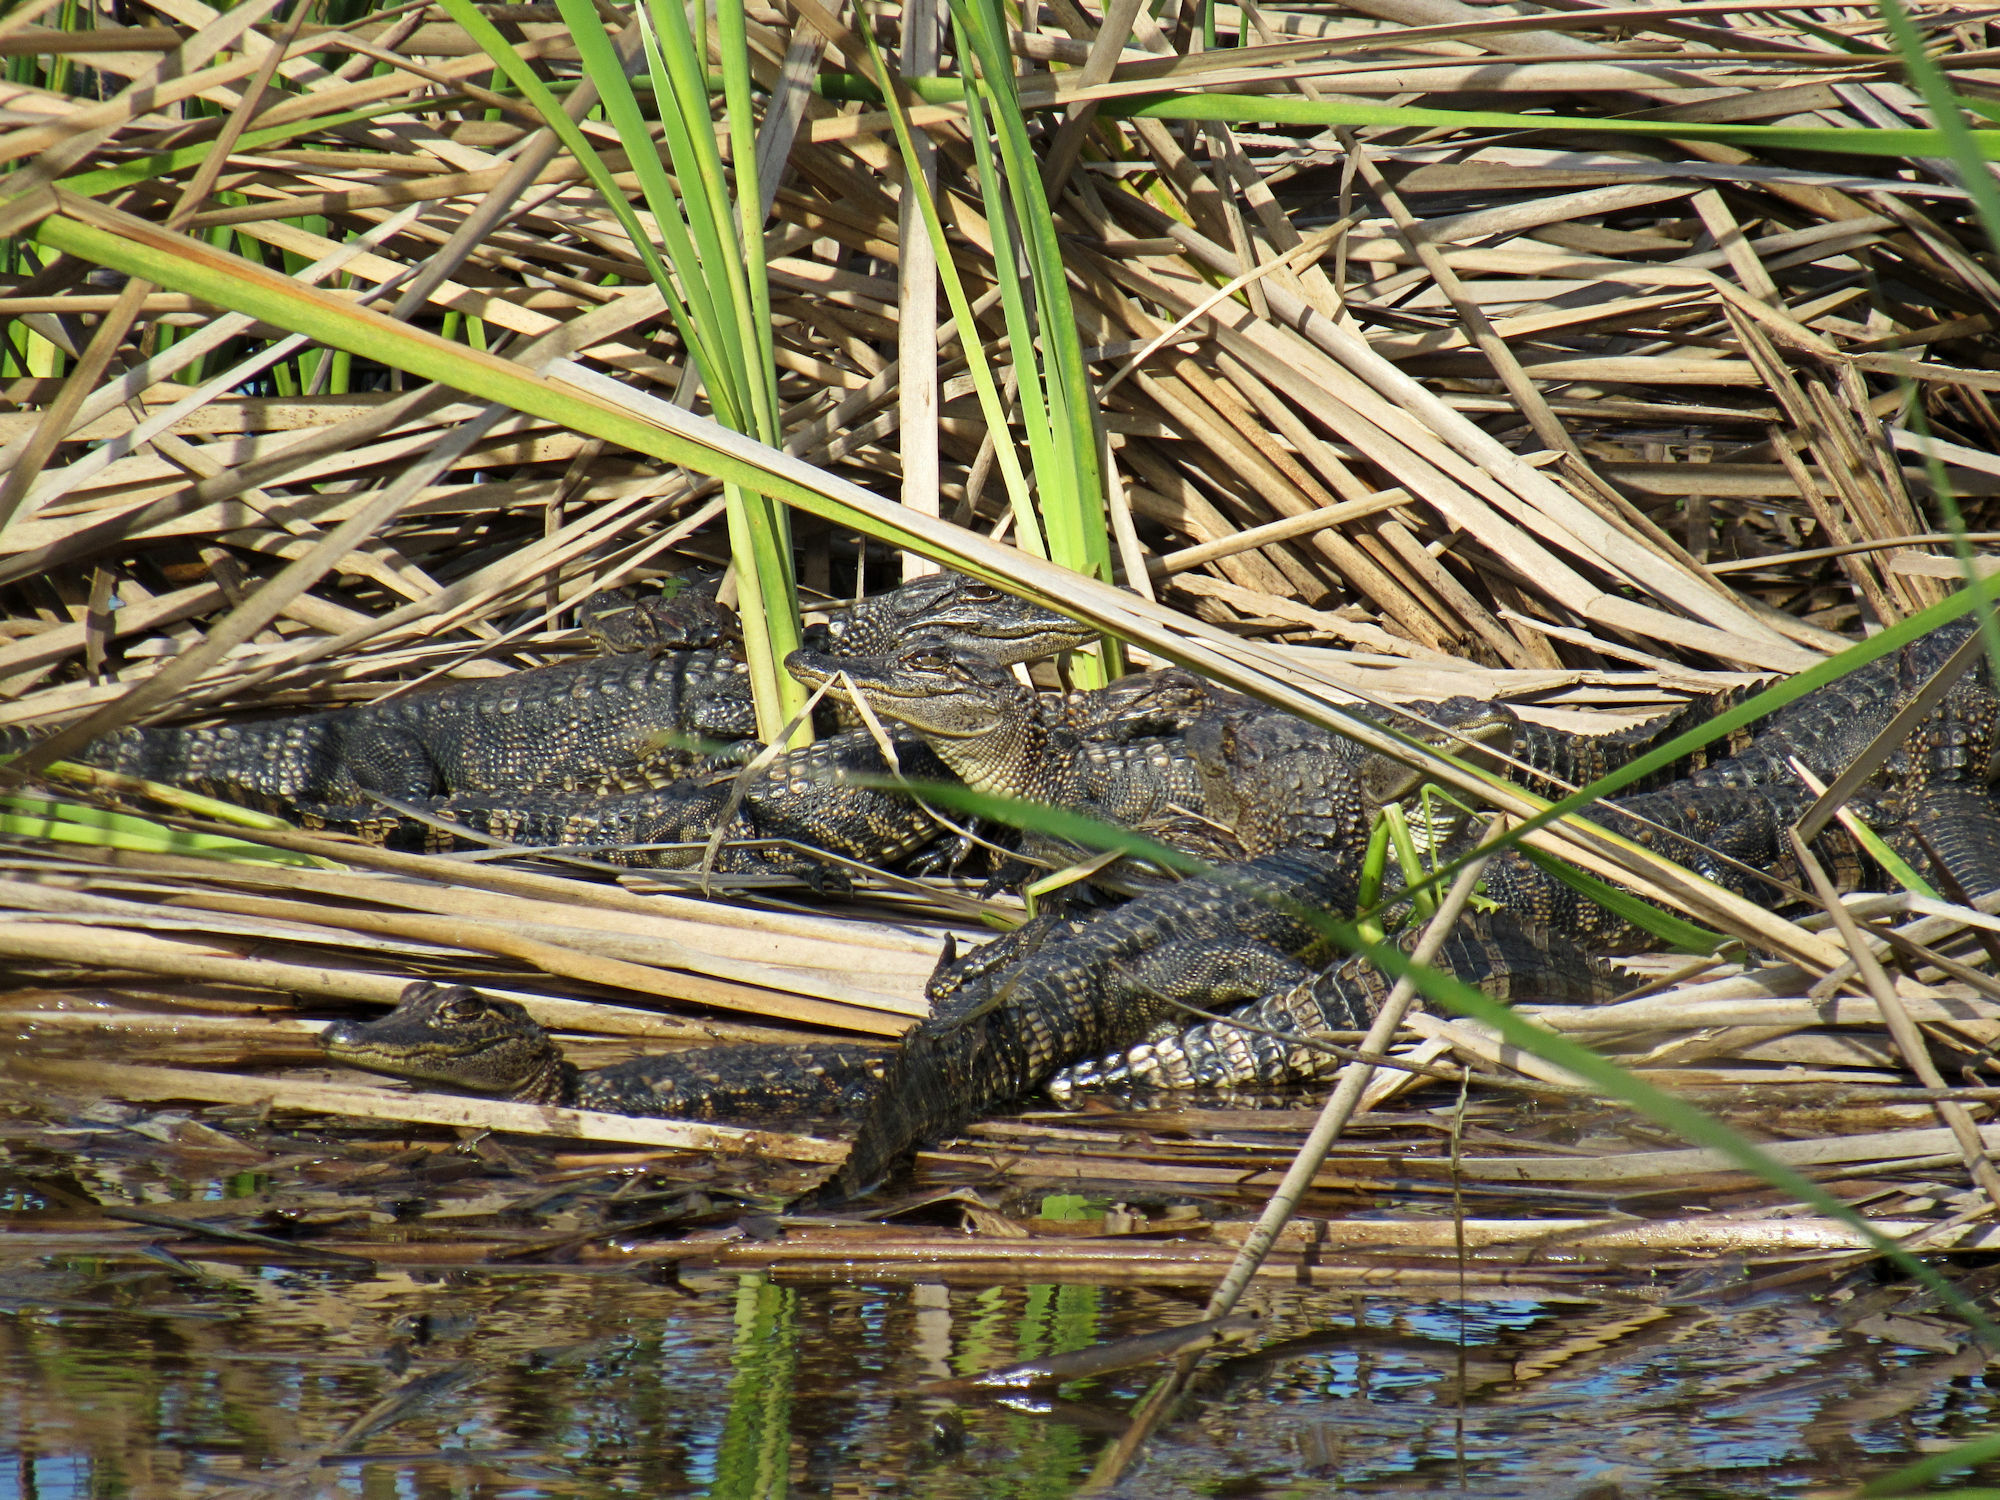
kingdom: Animalia
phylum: Chordata
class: Crocodylia
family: Alligatoridae
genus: Alligator
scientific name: Alligator mississippiensis
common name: American alligator
